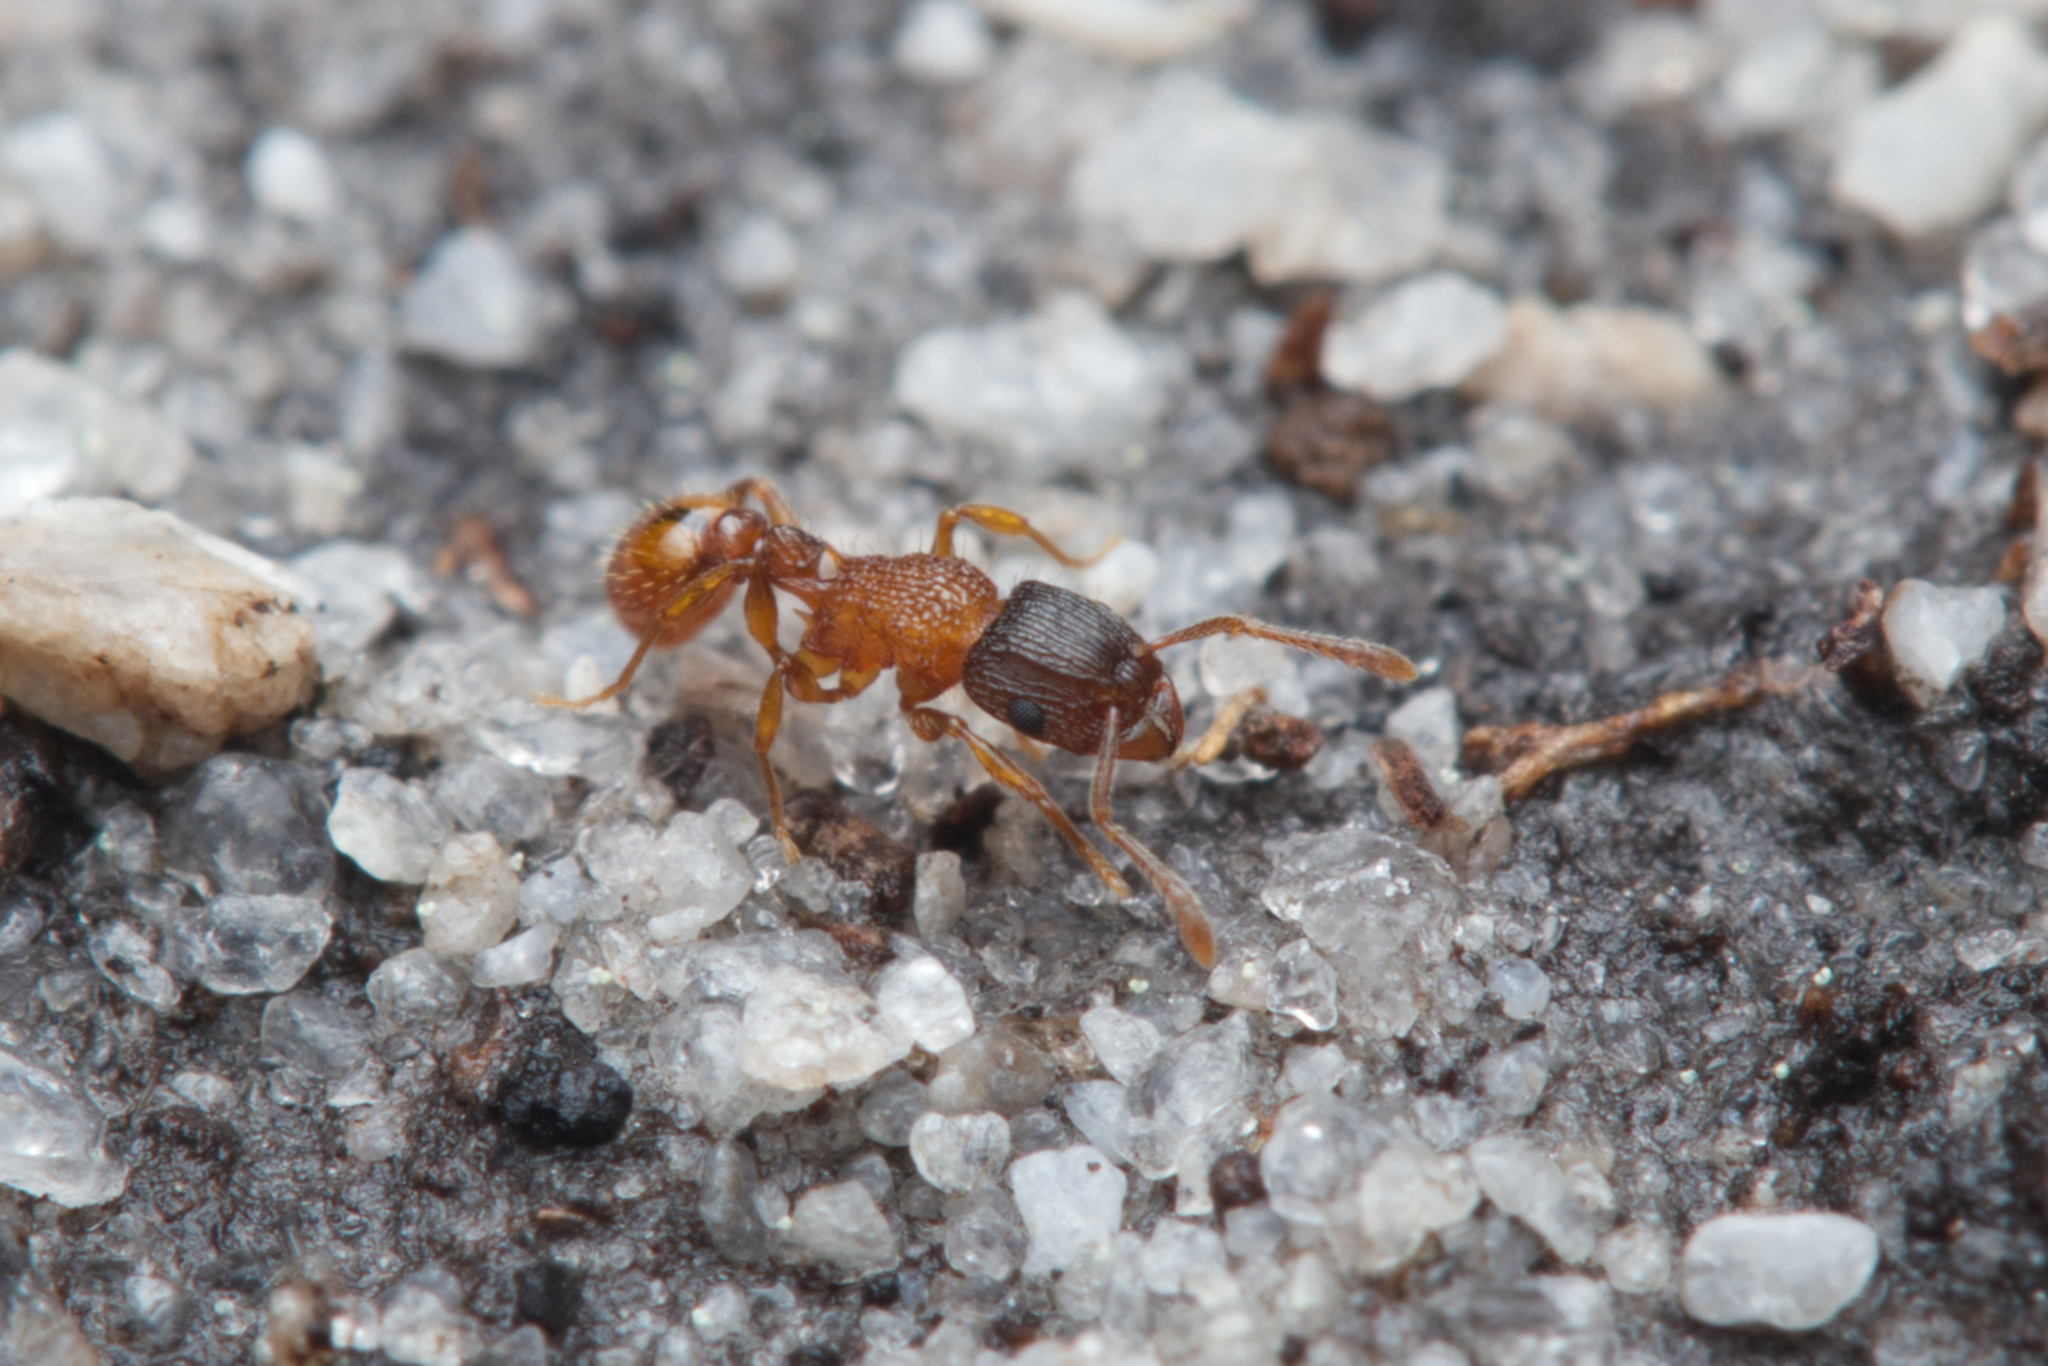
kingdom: Animalia
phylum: Arthropoda
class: Insecta
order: Hymenoptera
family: Formicidae
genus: Tetramorium
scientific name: Tetramorium fuscipes
